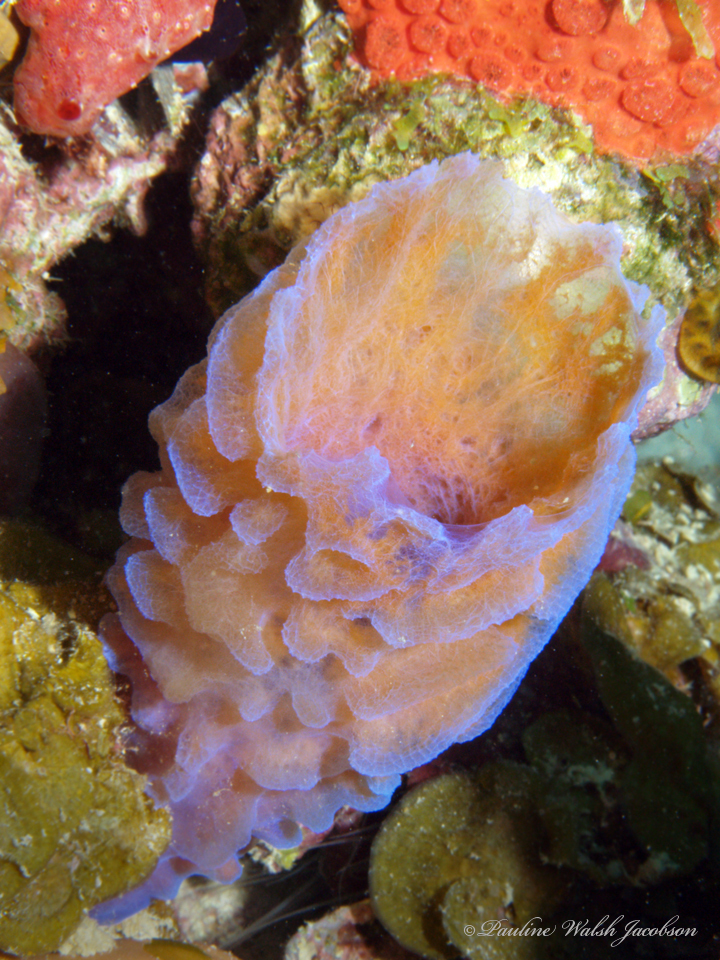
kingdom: Animalia
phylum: Porifera
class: Demospongiae
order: Haplosclerida
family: Callyspongiidae
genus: Callyspongia
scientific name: Callyspongia plicifera
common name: Azure vase sponge
